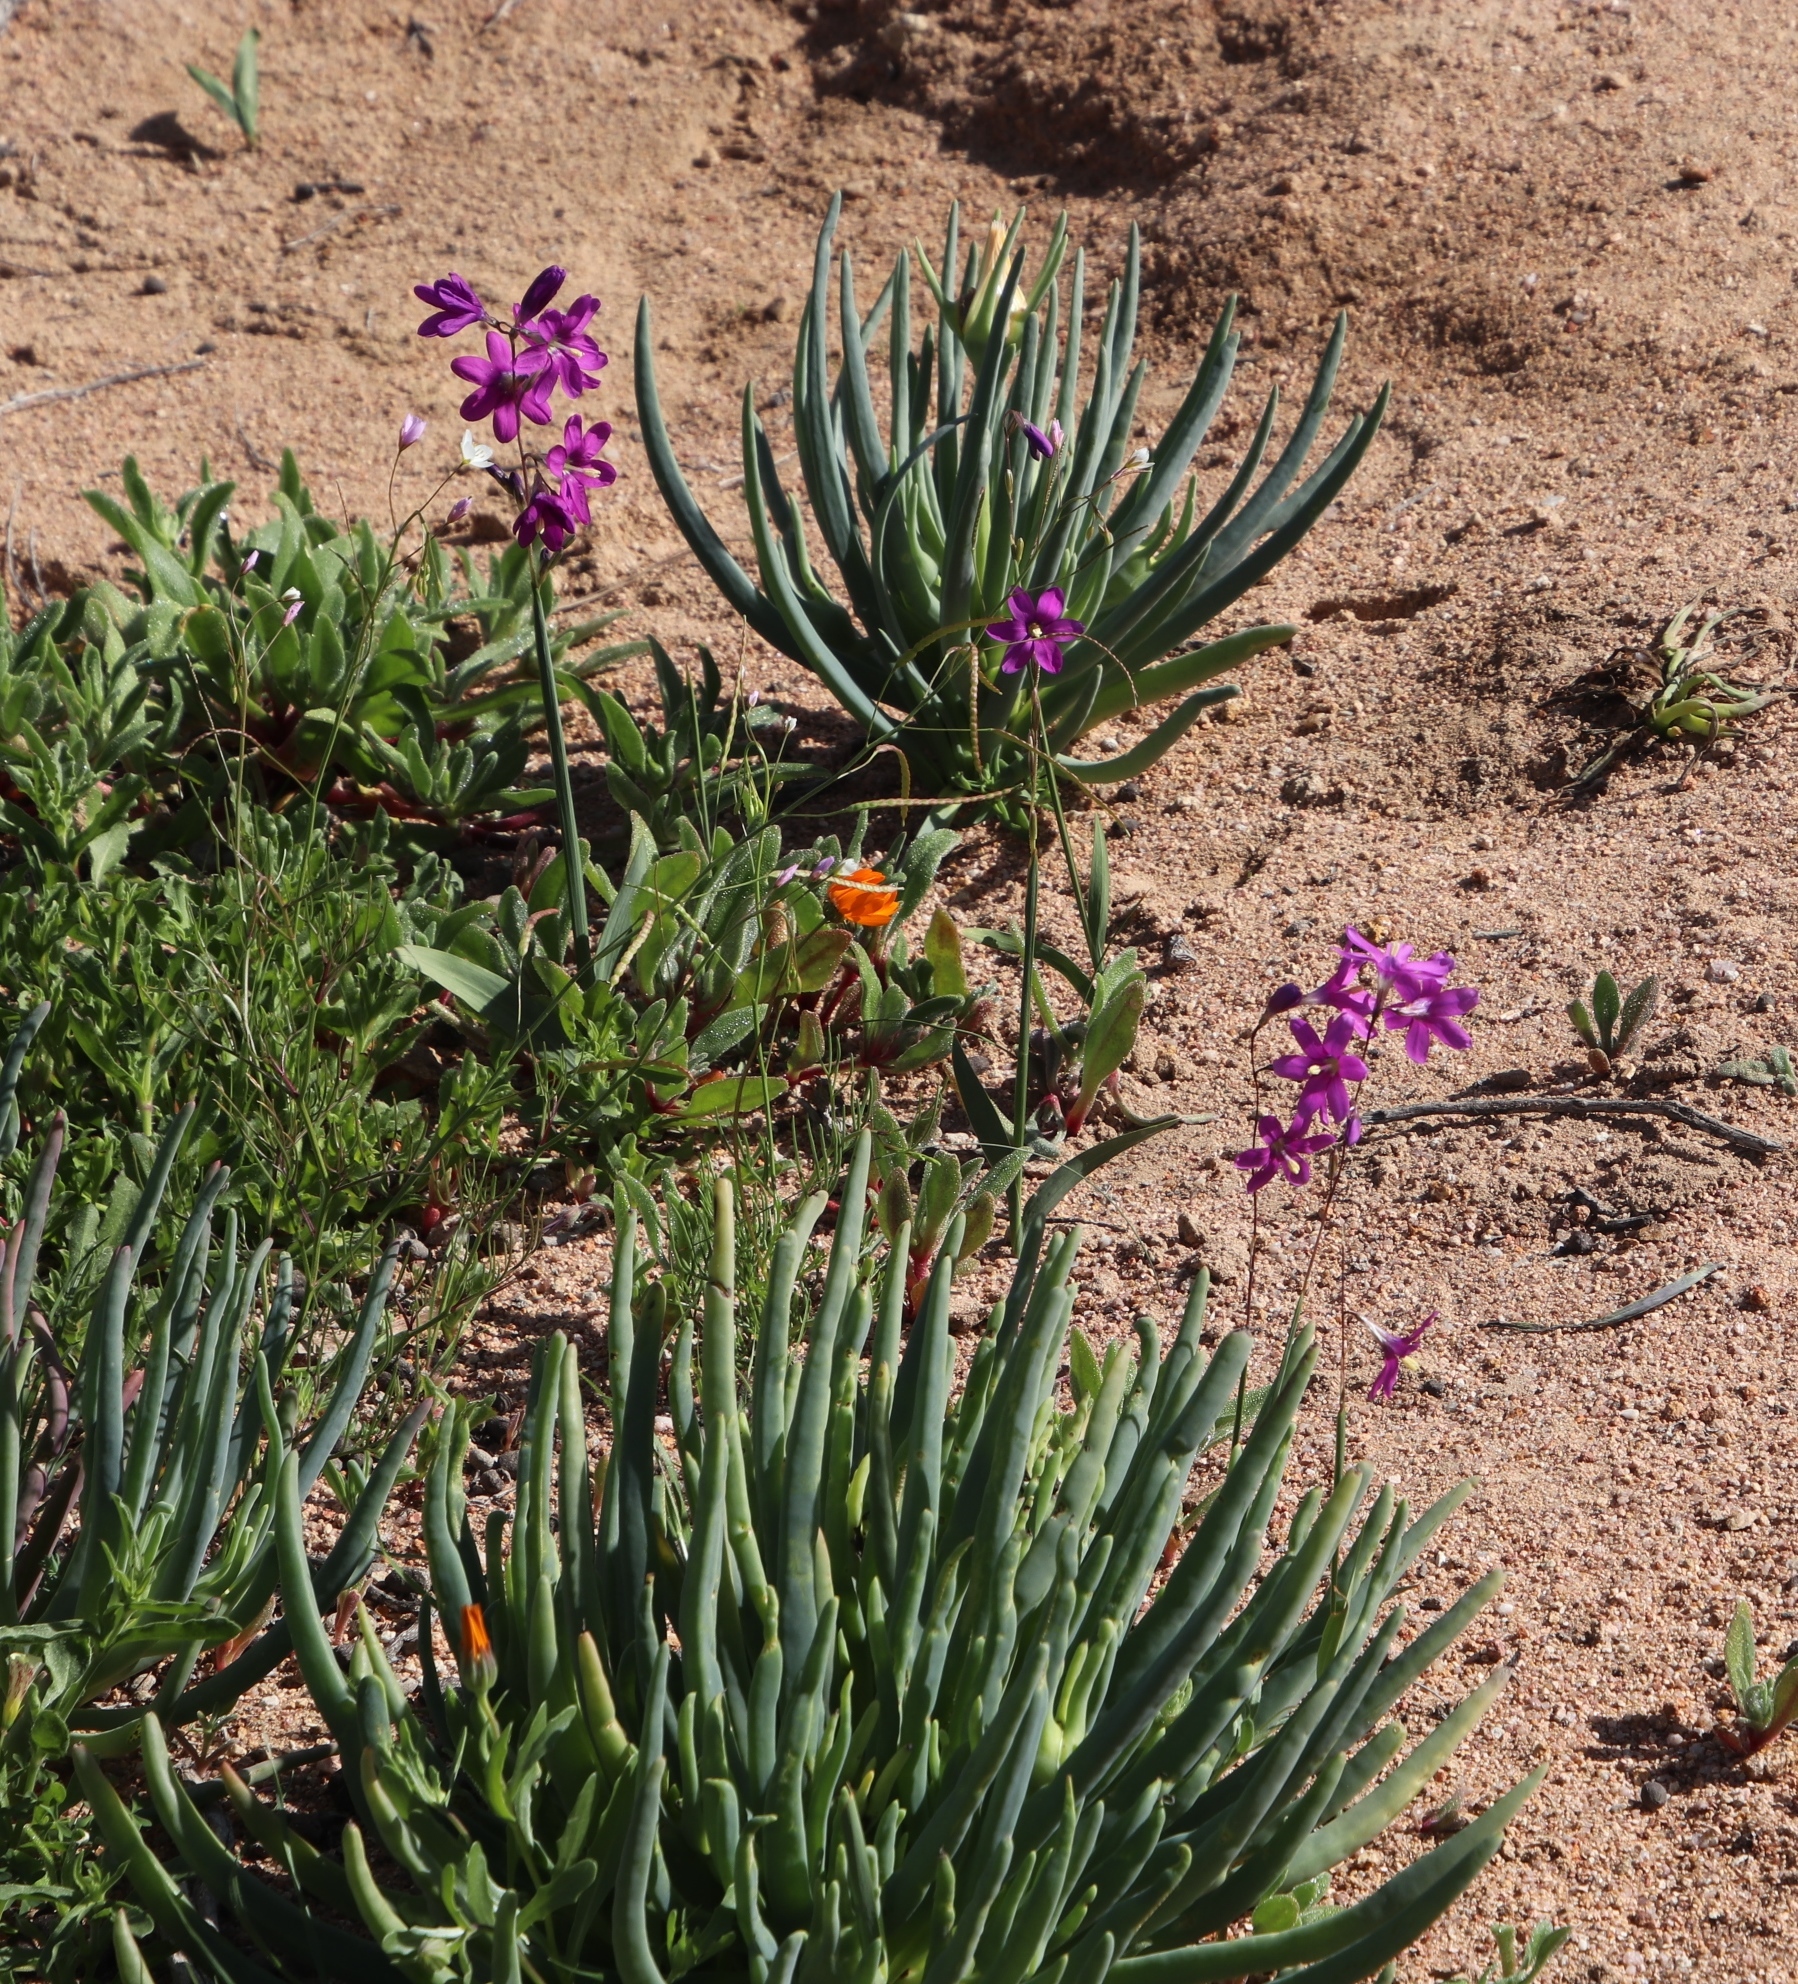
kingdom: Plantae
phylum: Tracheophyta
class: Liliopsida
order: Asparagales
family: Iridaceae
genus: Ixia
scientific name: Ixia ramulosa
